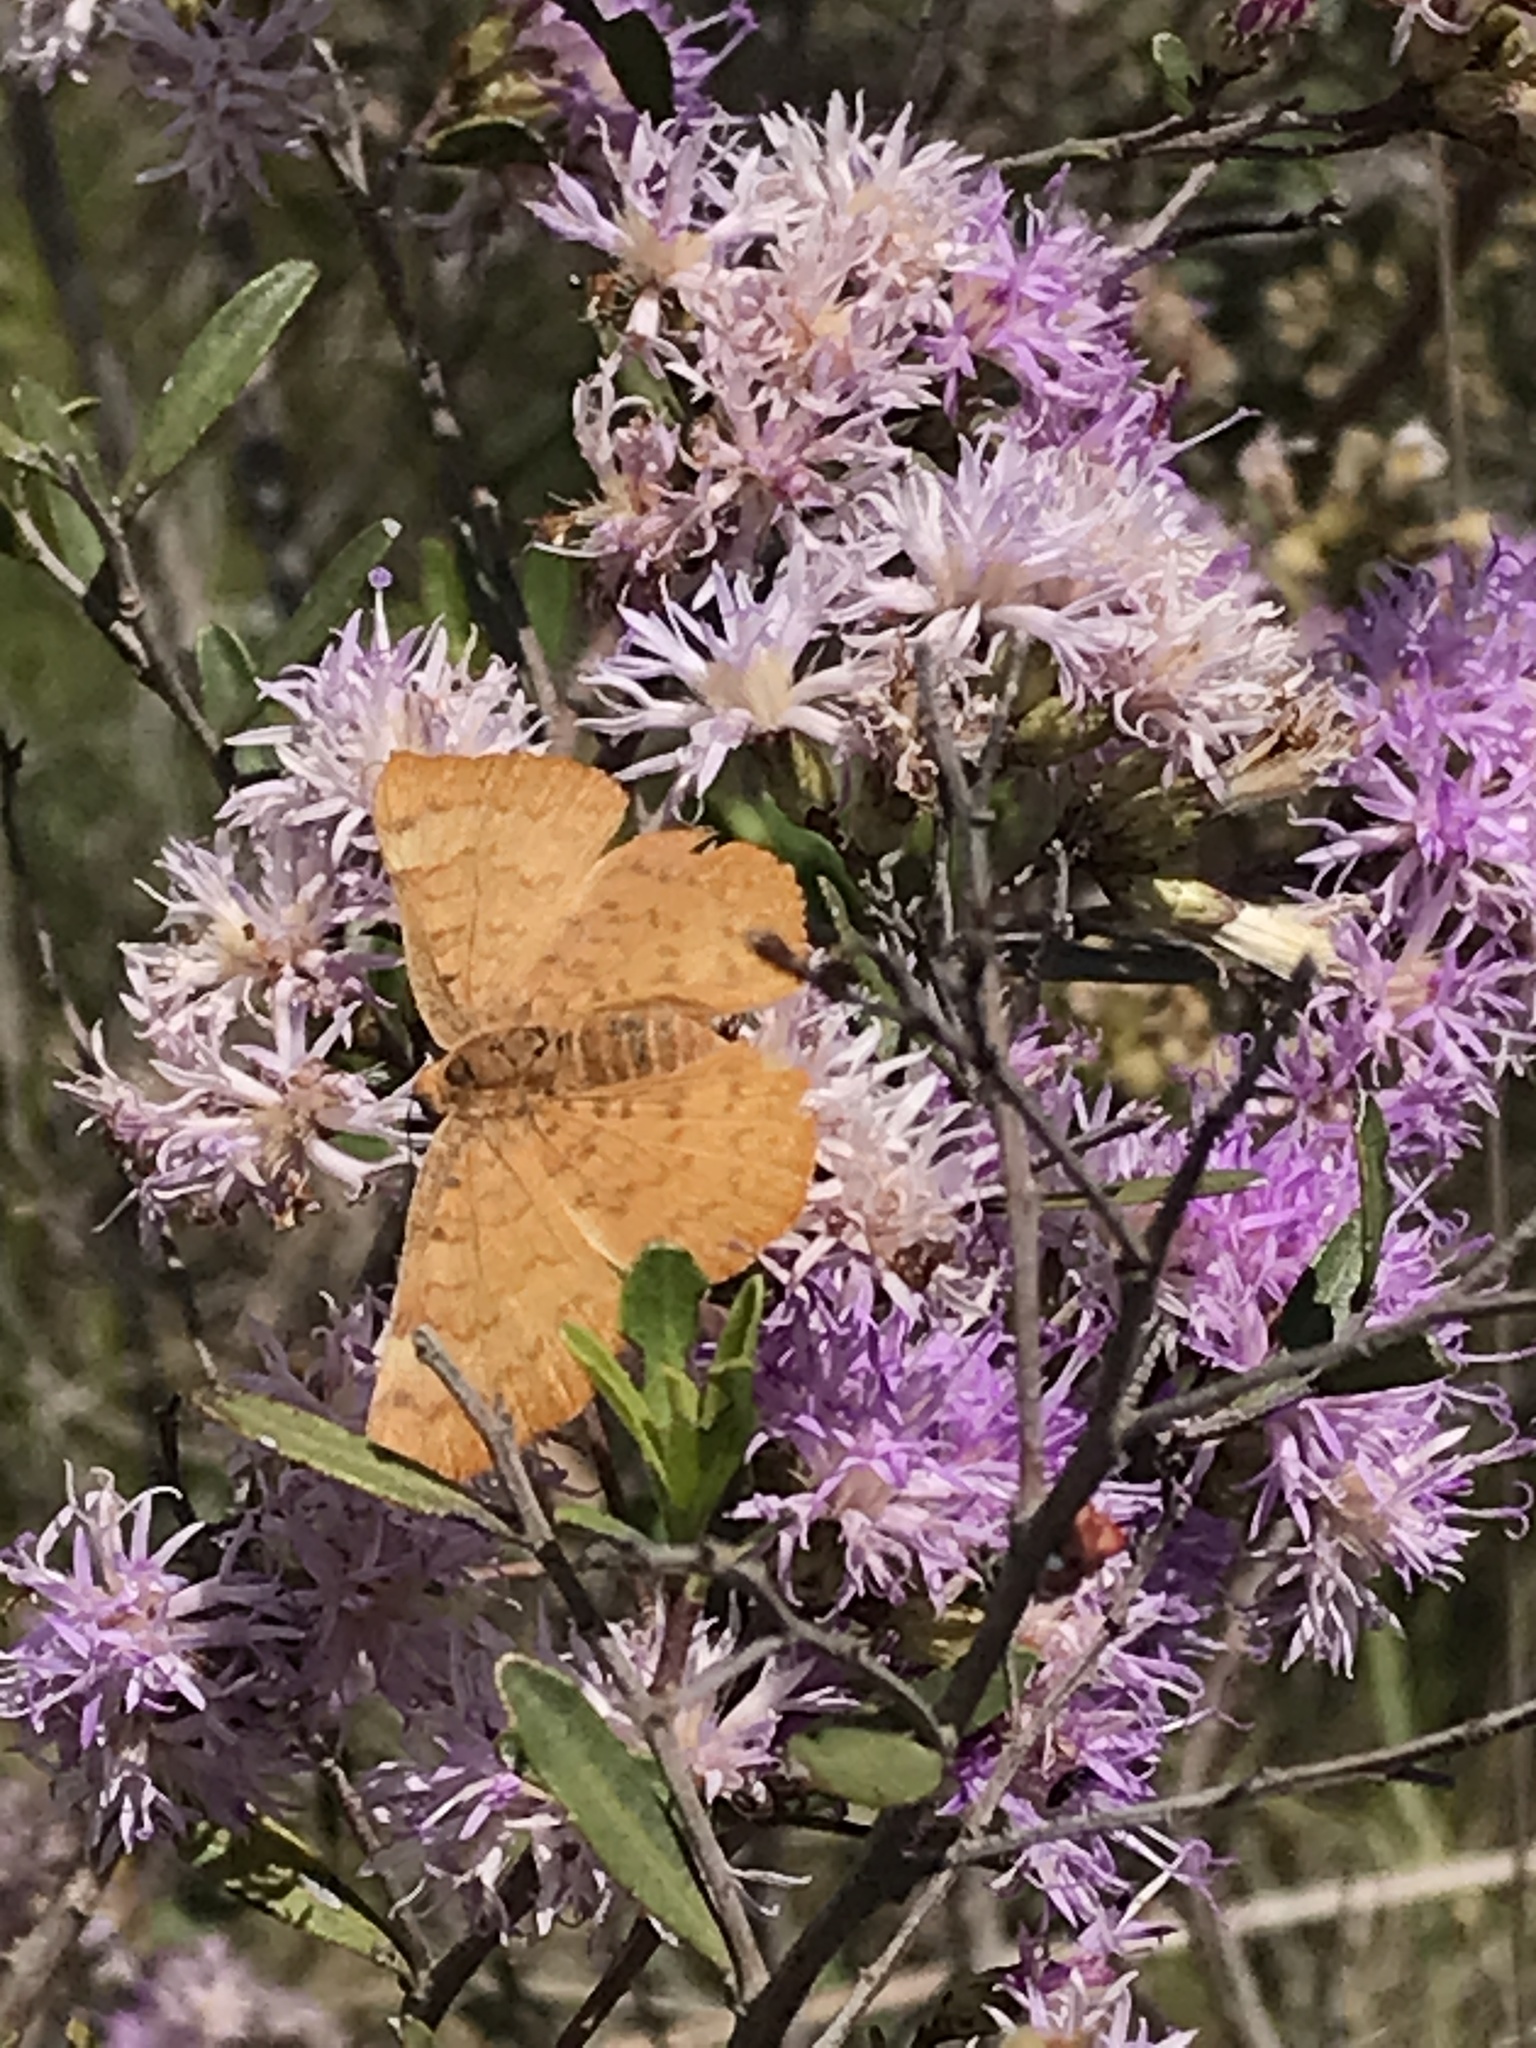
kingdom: Animalia
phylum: Arthropoda
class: Insecta
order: Lepidoptera
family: Lycaenidae
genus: Emesis
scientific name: Emesis russula
